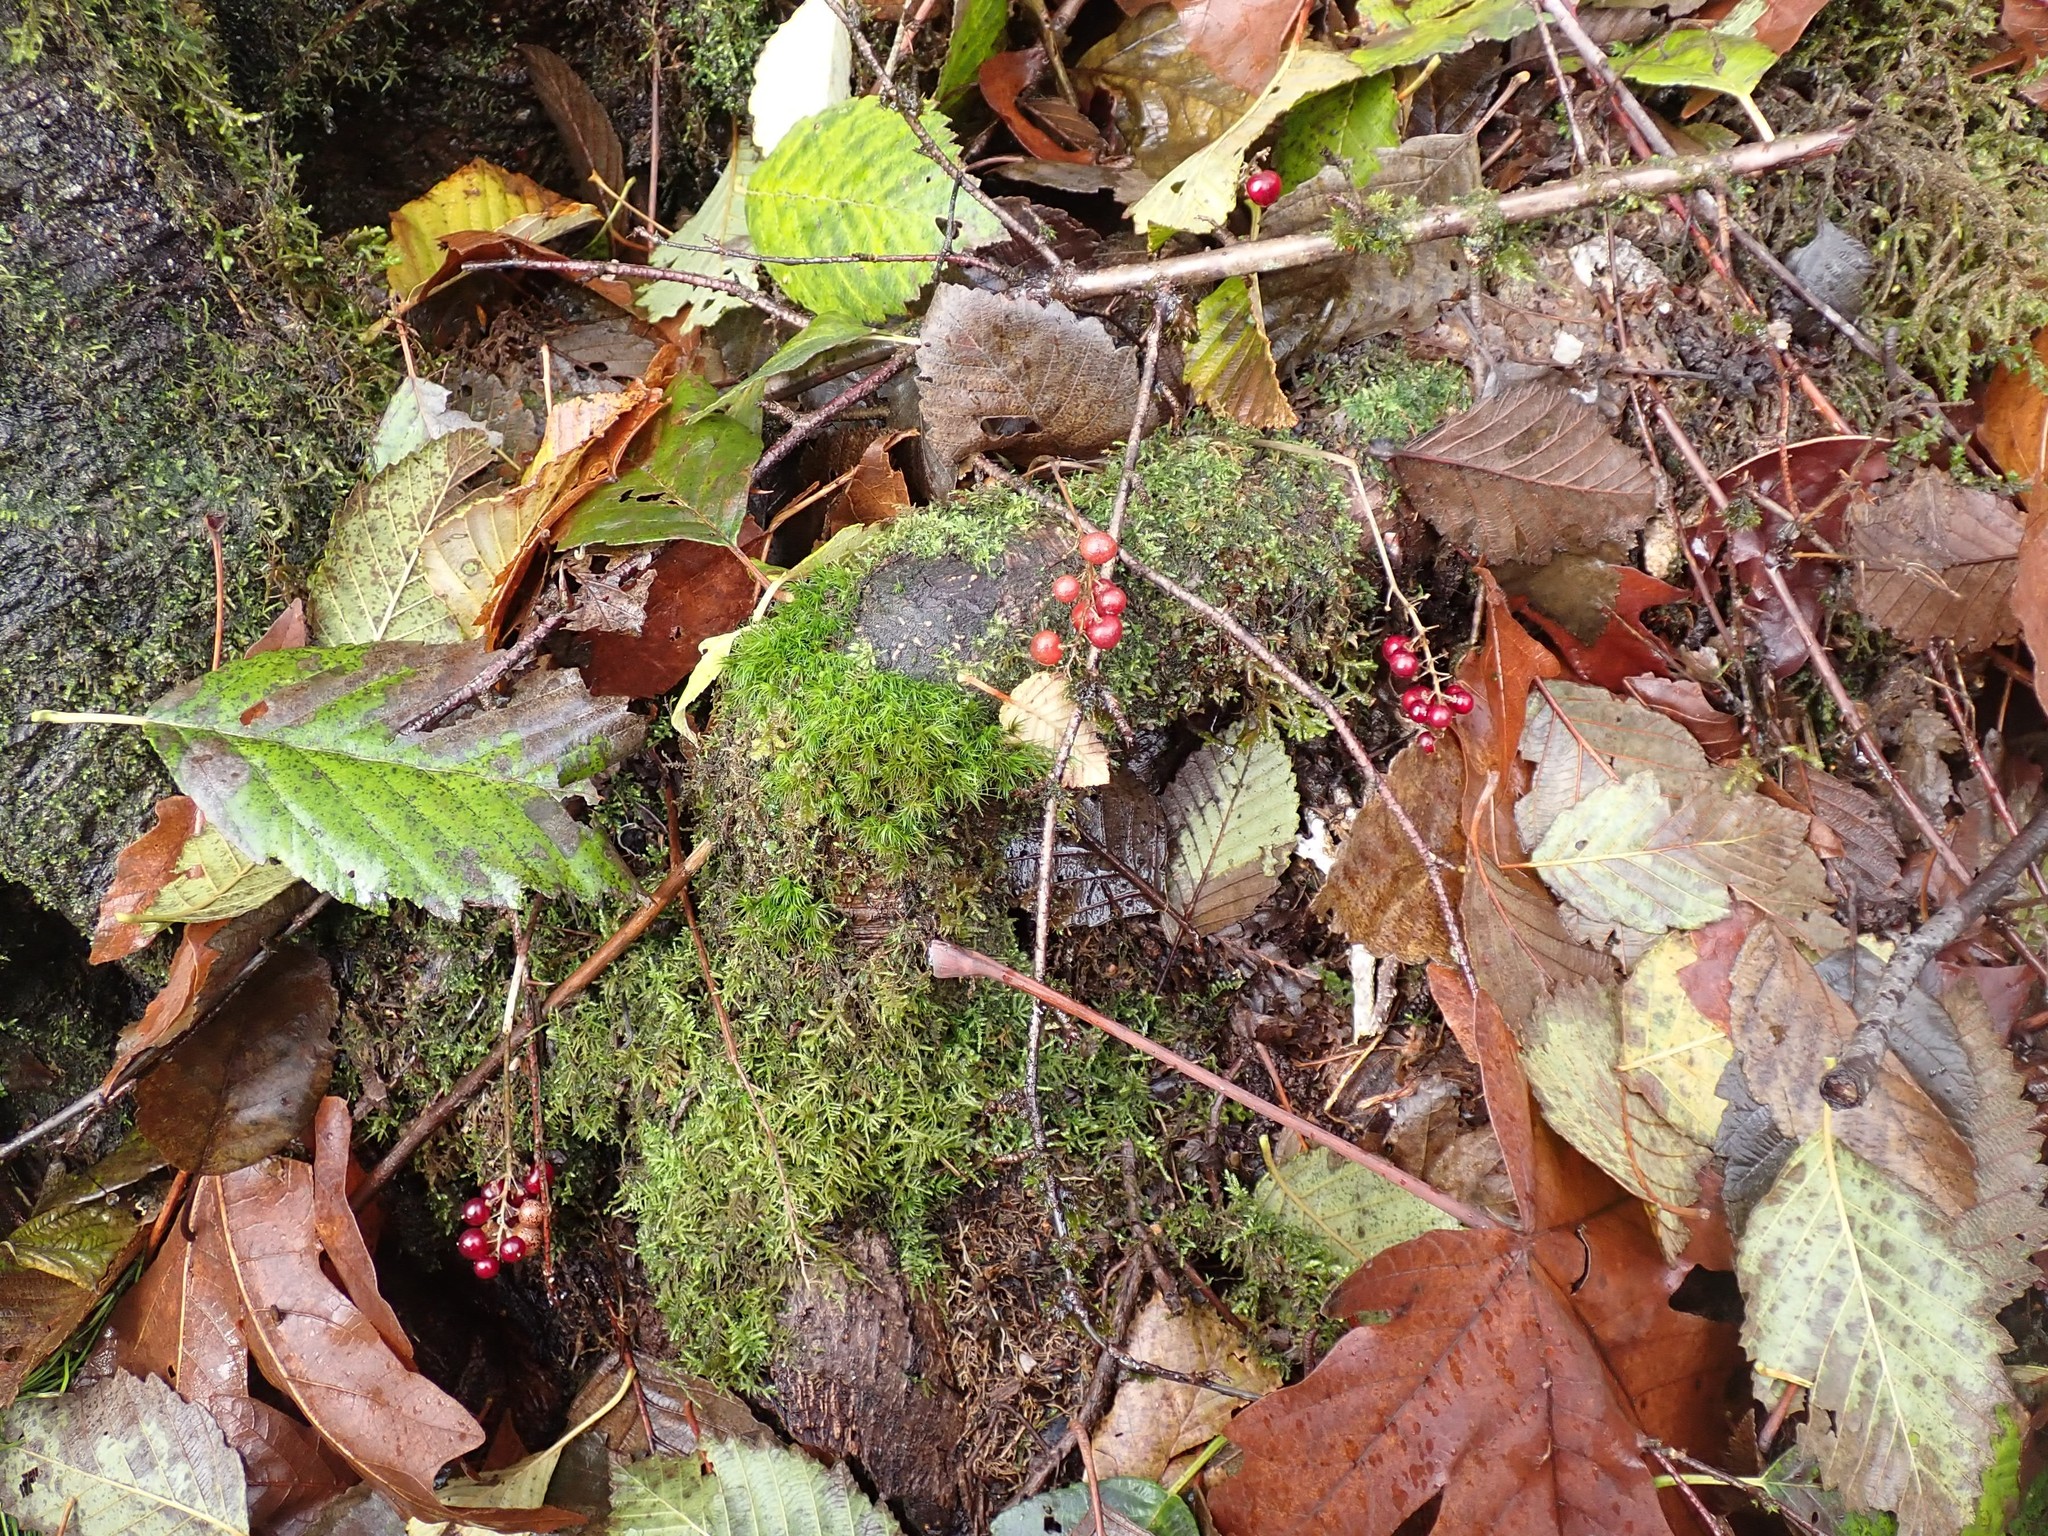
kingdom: Plantae
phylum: Tracheophyta
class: Liliopsida
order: Asparagales
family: Asparagaceae
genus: Maianthemum
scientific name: Maianthemum dilatatum
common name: False lily-of-the-valley
